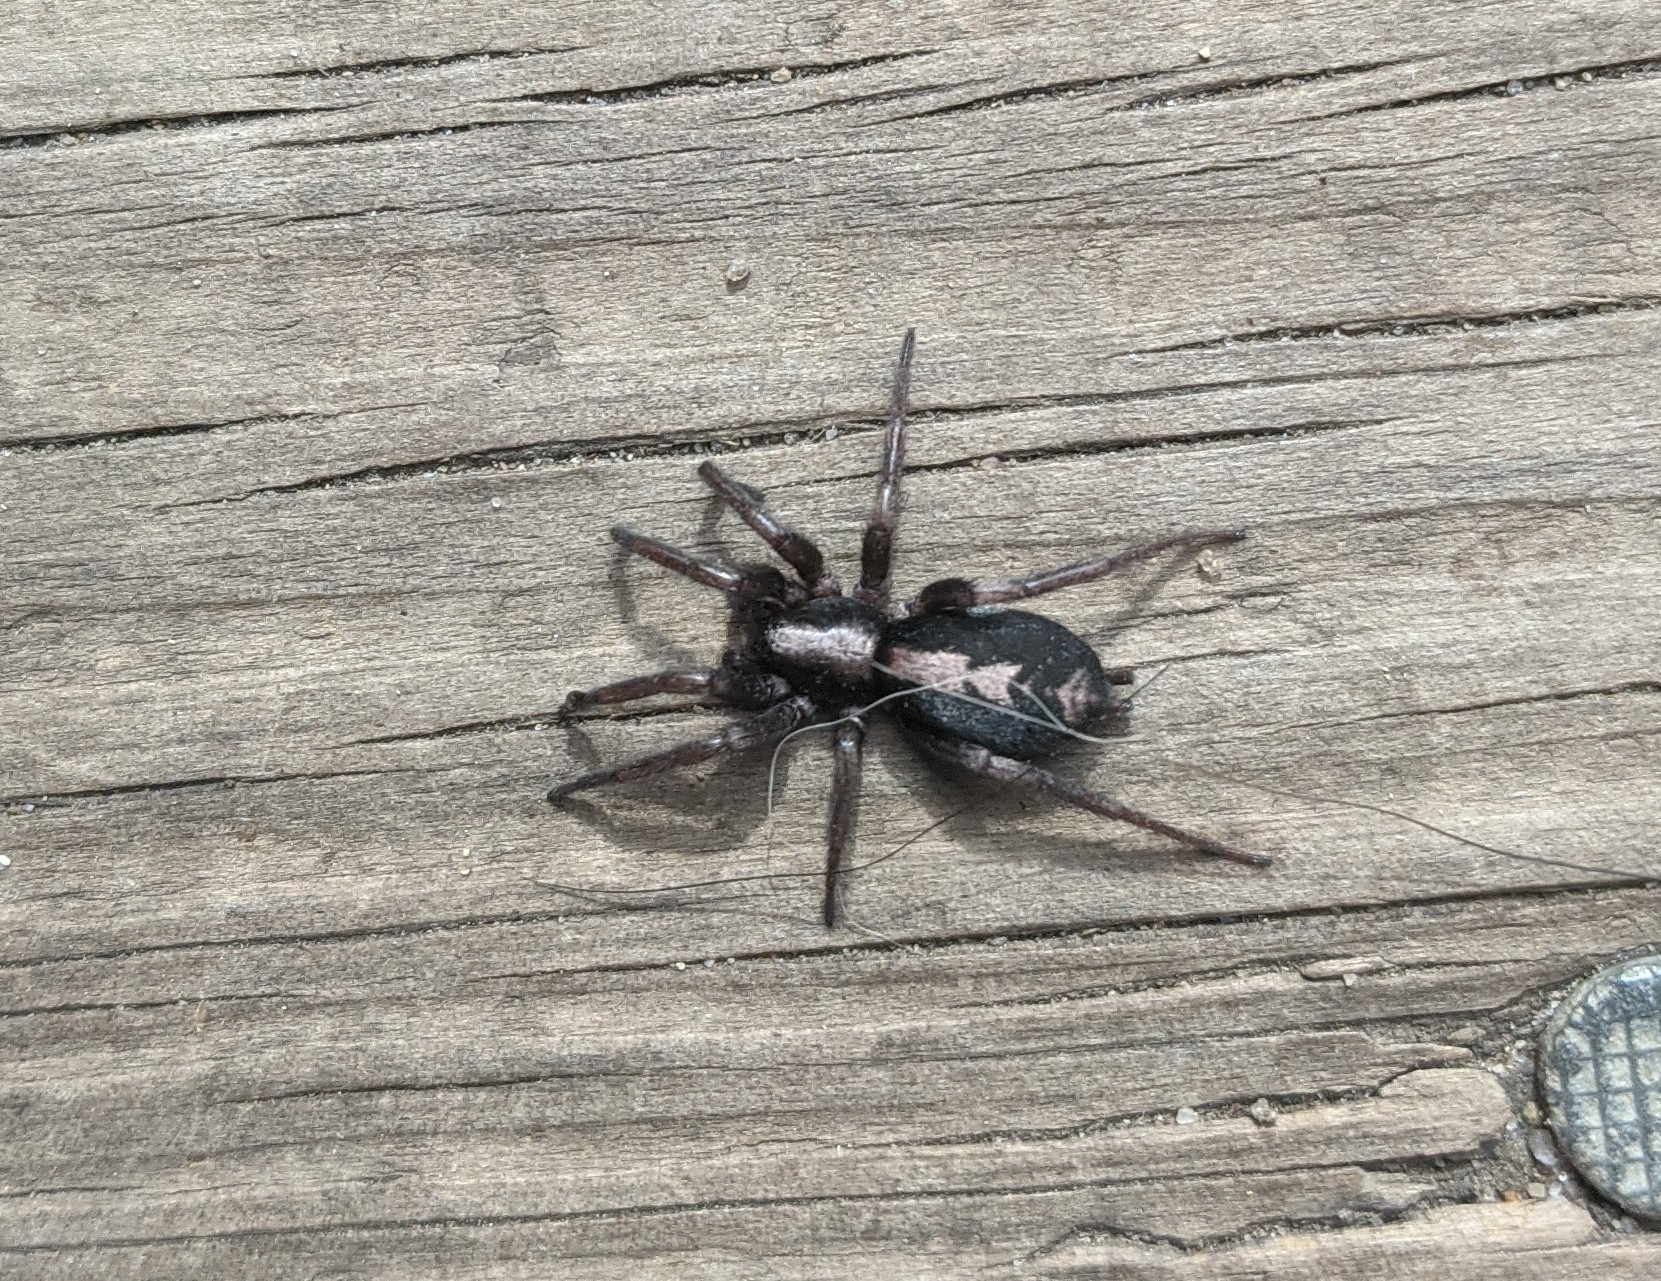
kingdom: Animalia
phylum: Arthropoda
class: Arachnida
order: Araneae
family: Gnaphosidae
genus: Herpyllus
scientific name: Herpyllus ecclesiasticus
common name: Eastern parson spider
